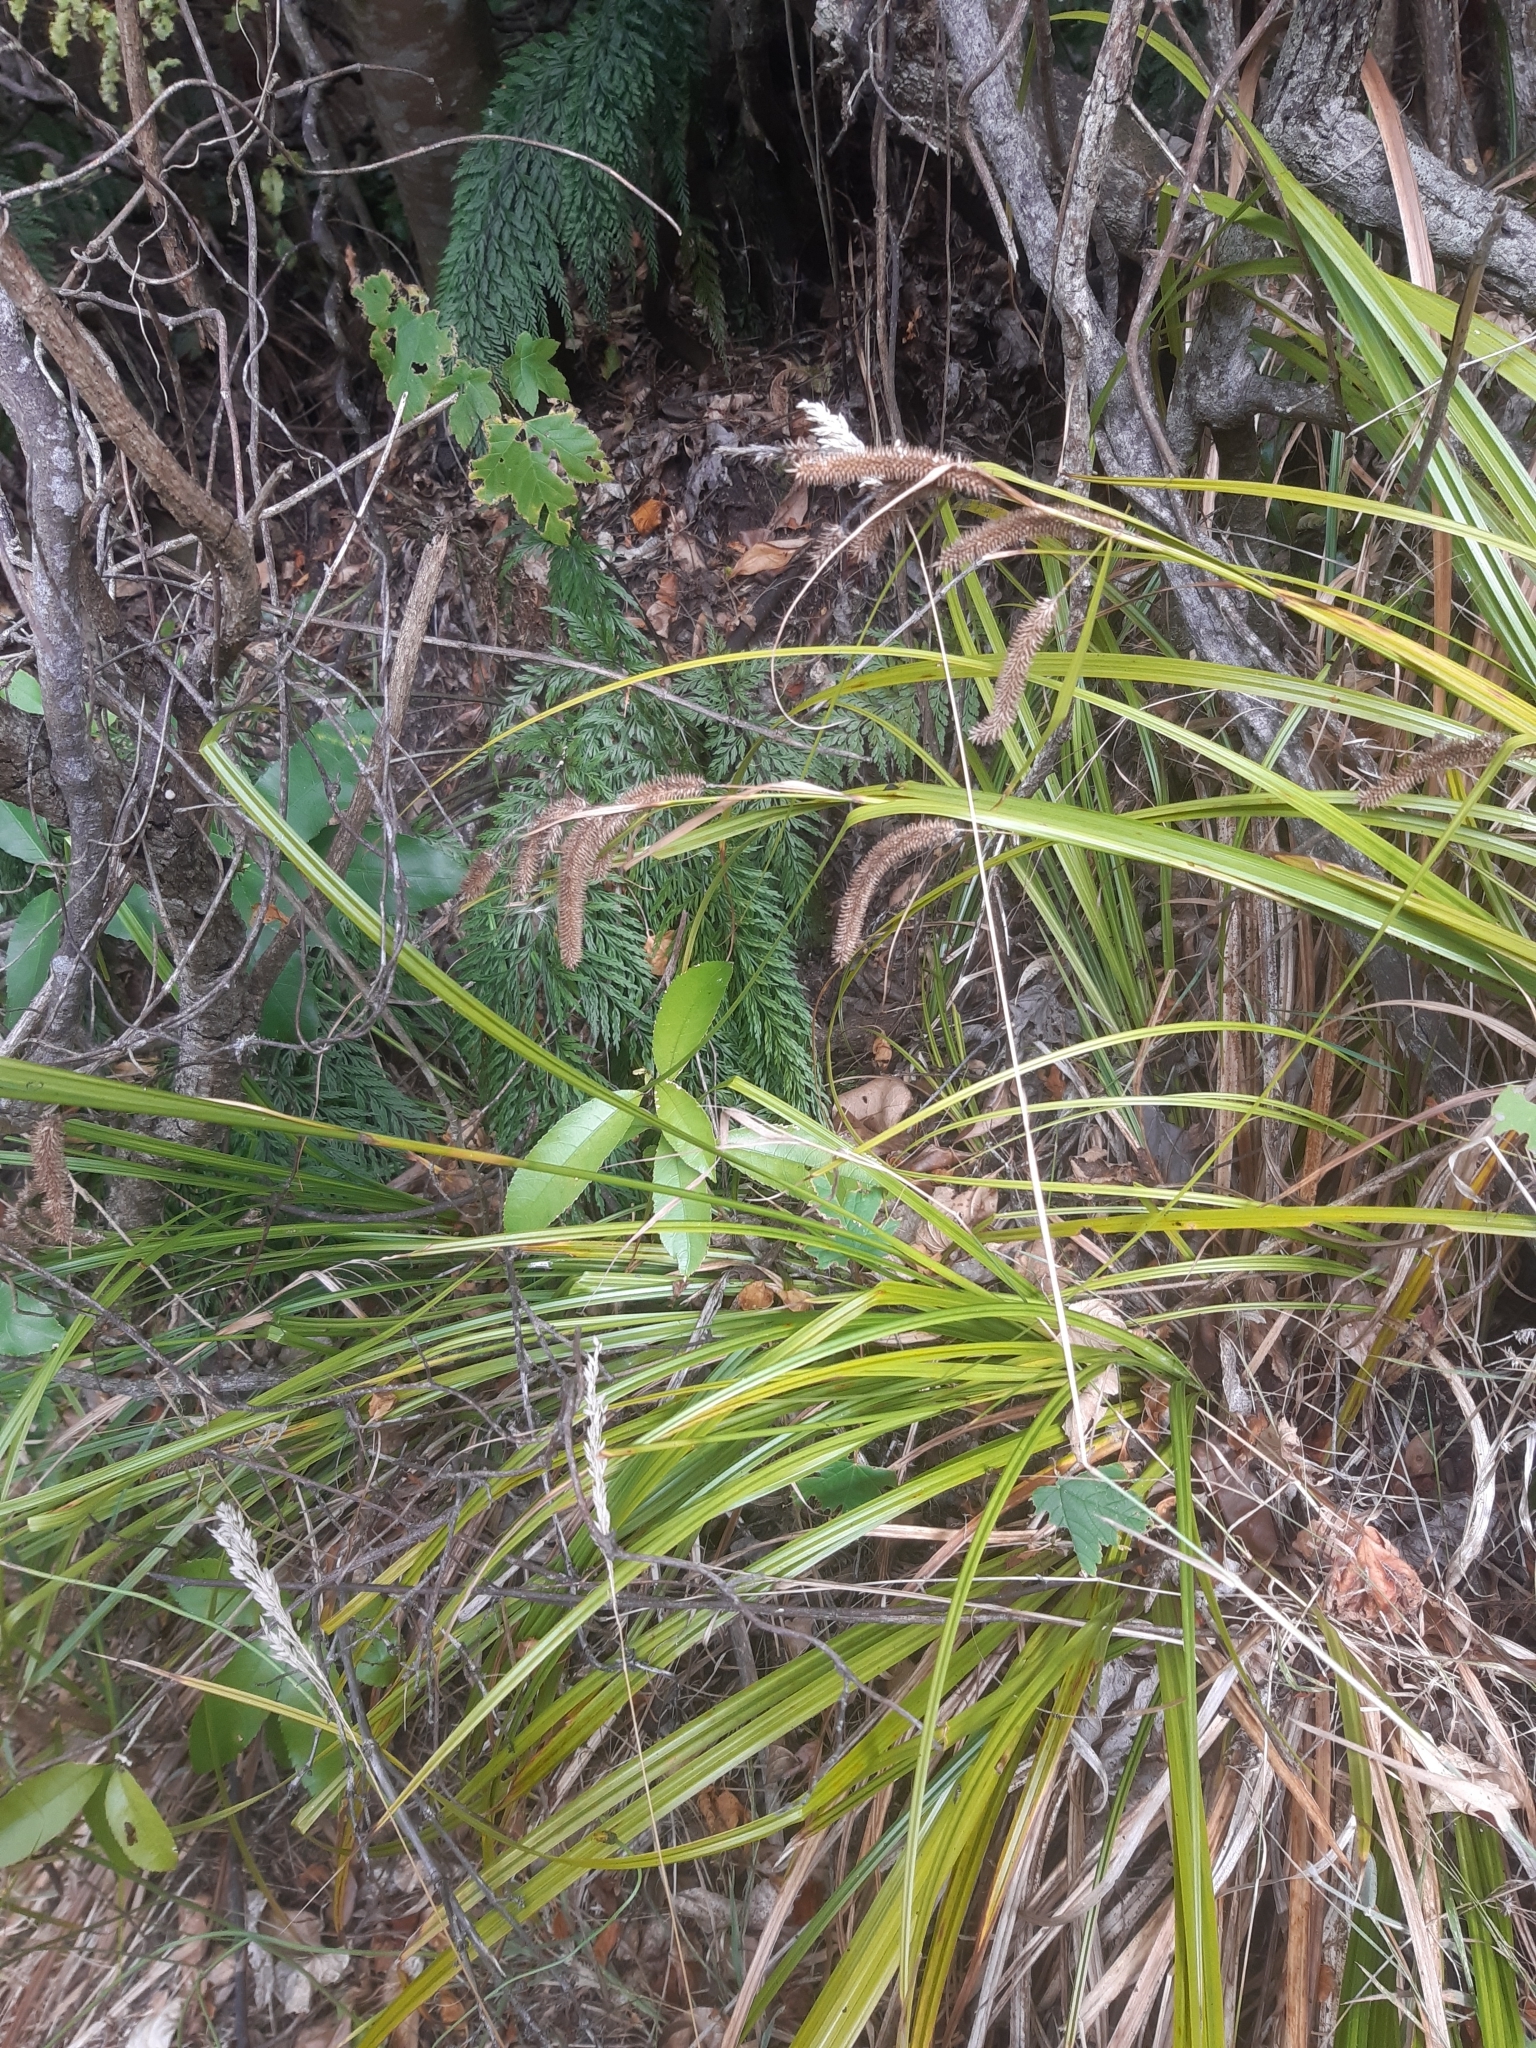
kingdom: Plantae
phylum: Tracheophyta
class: Liliopsida
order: Poales
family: Cyperaceae
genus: Carex
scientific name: Carex forsteri
